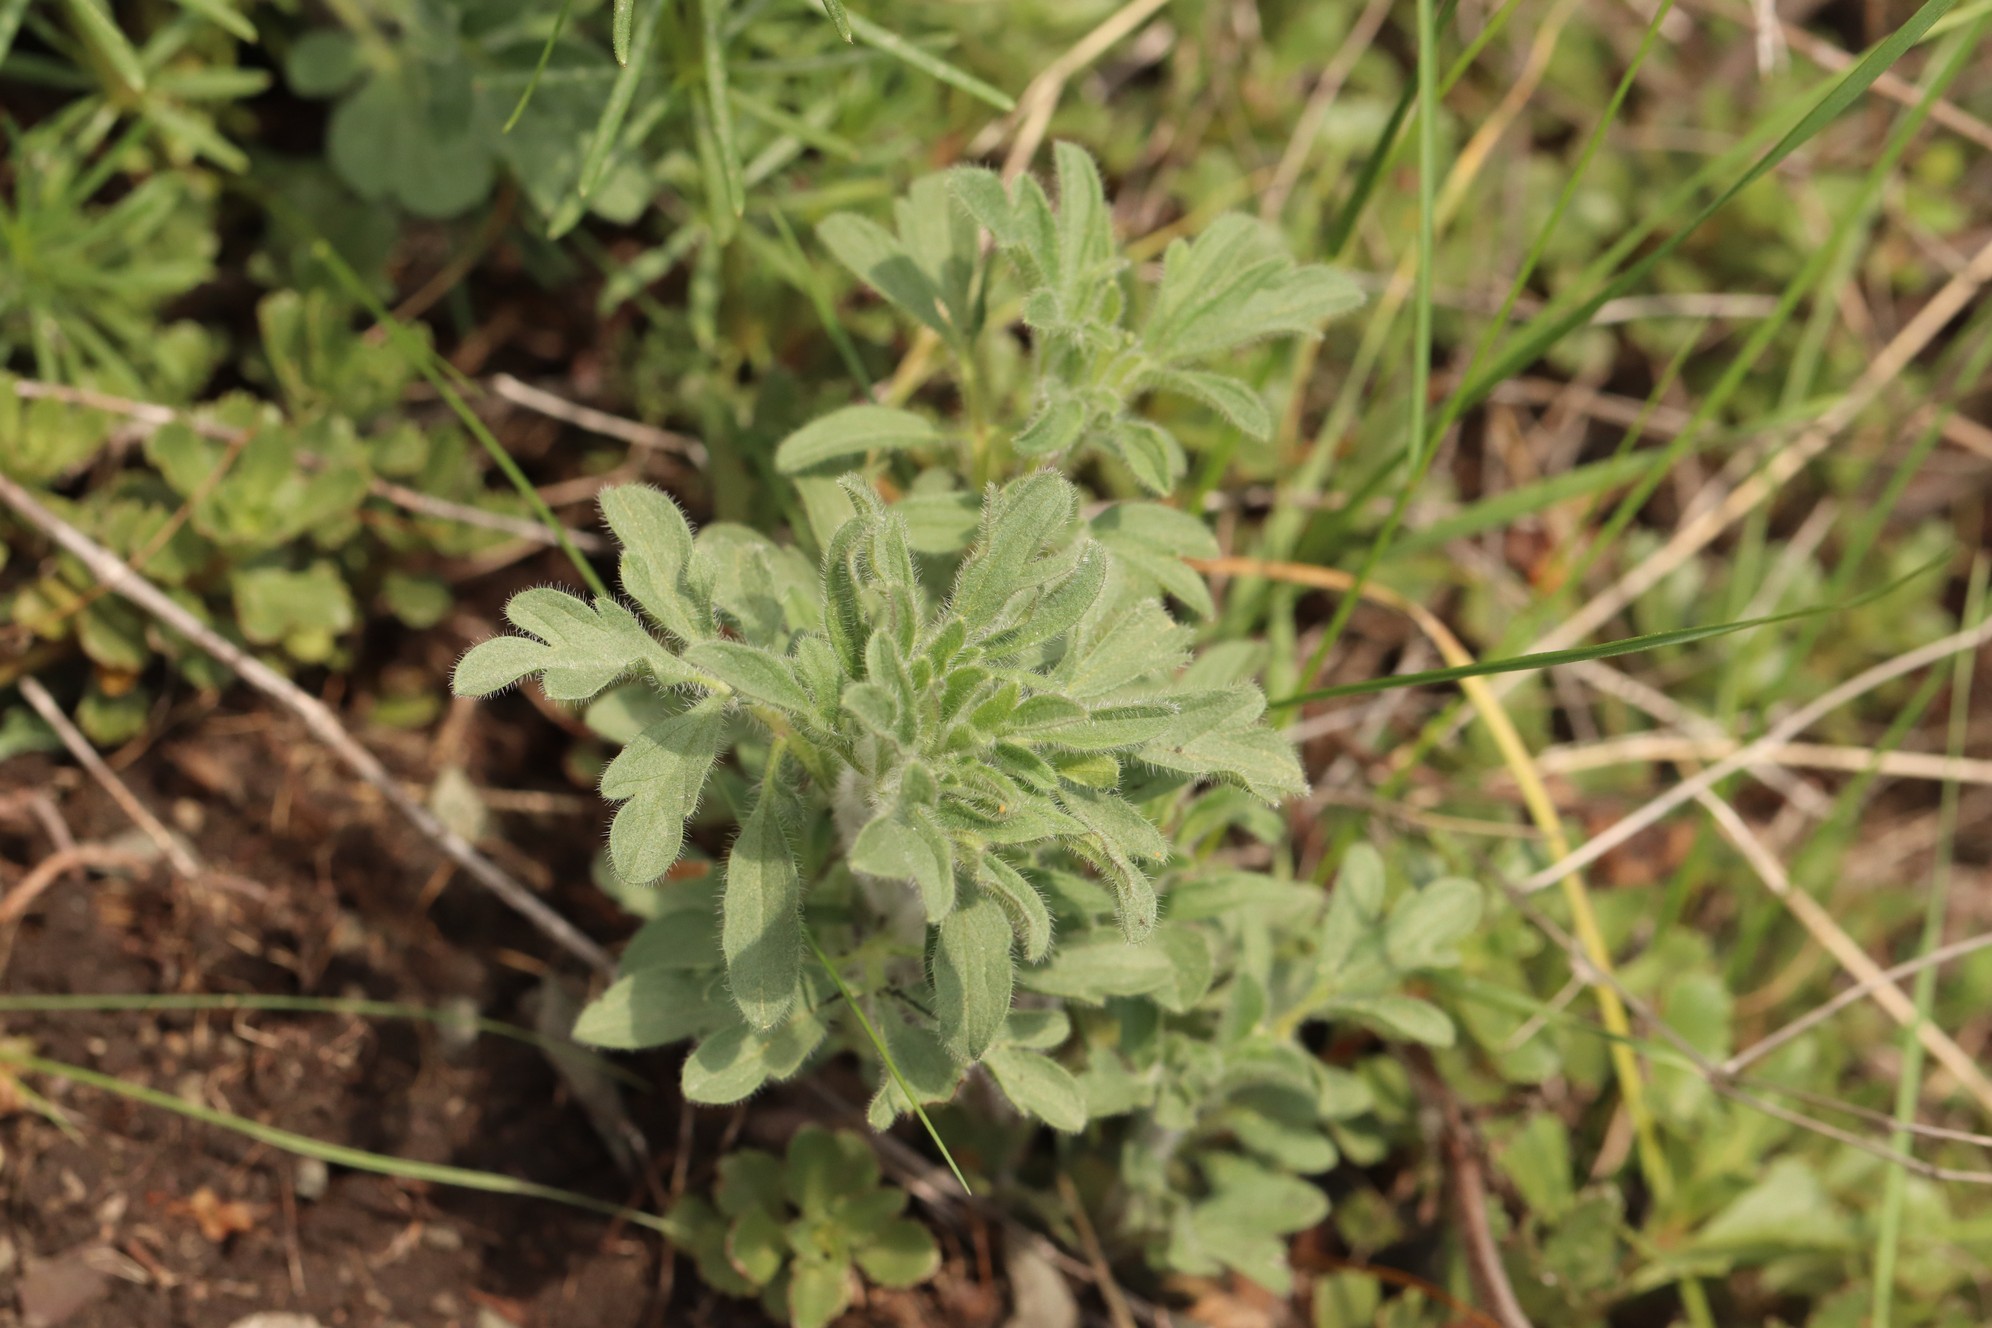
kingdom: Plantae
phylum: Tracheophyta
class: Magnoliopsida
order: Lamiales
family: Lamiaceae
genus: Nepeta
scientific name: Nepeta multifida
